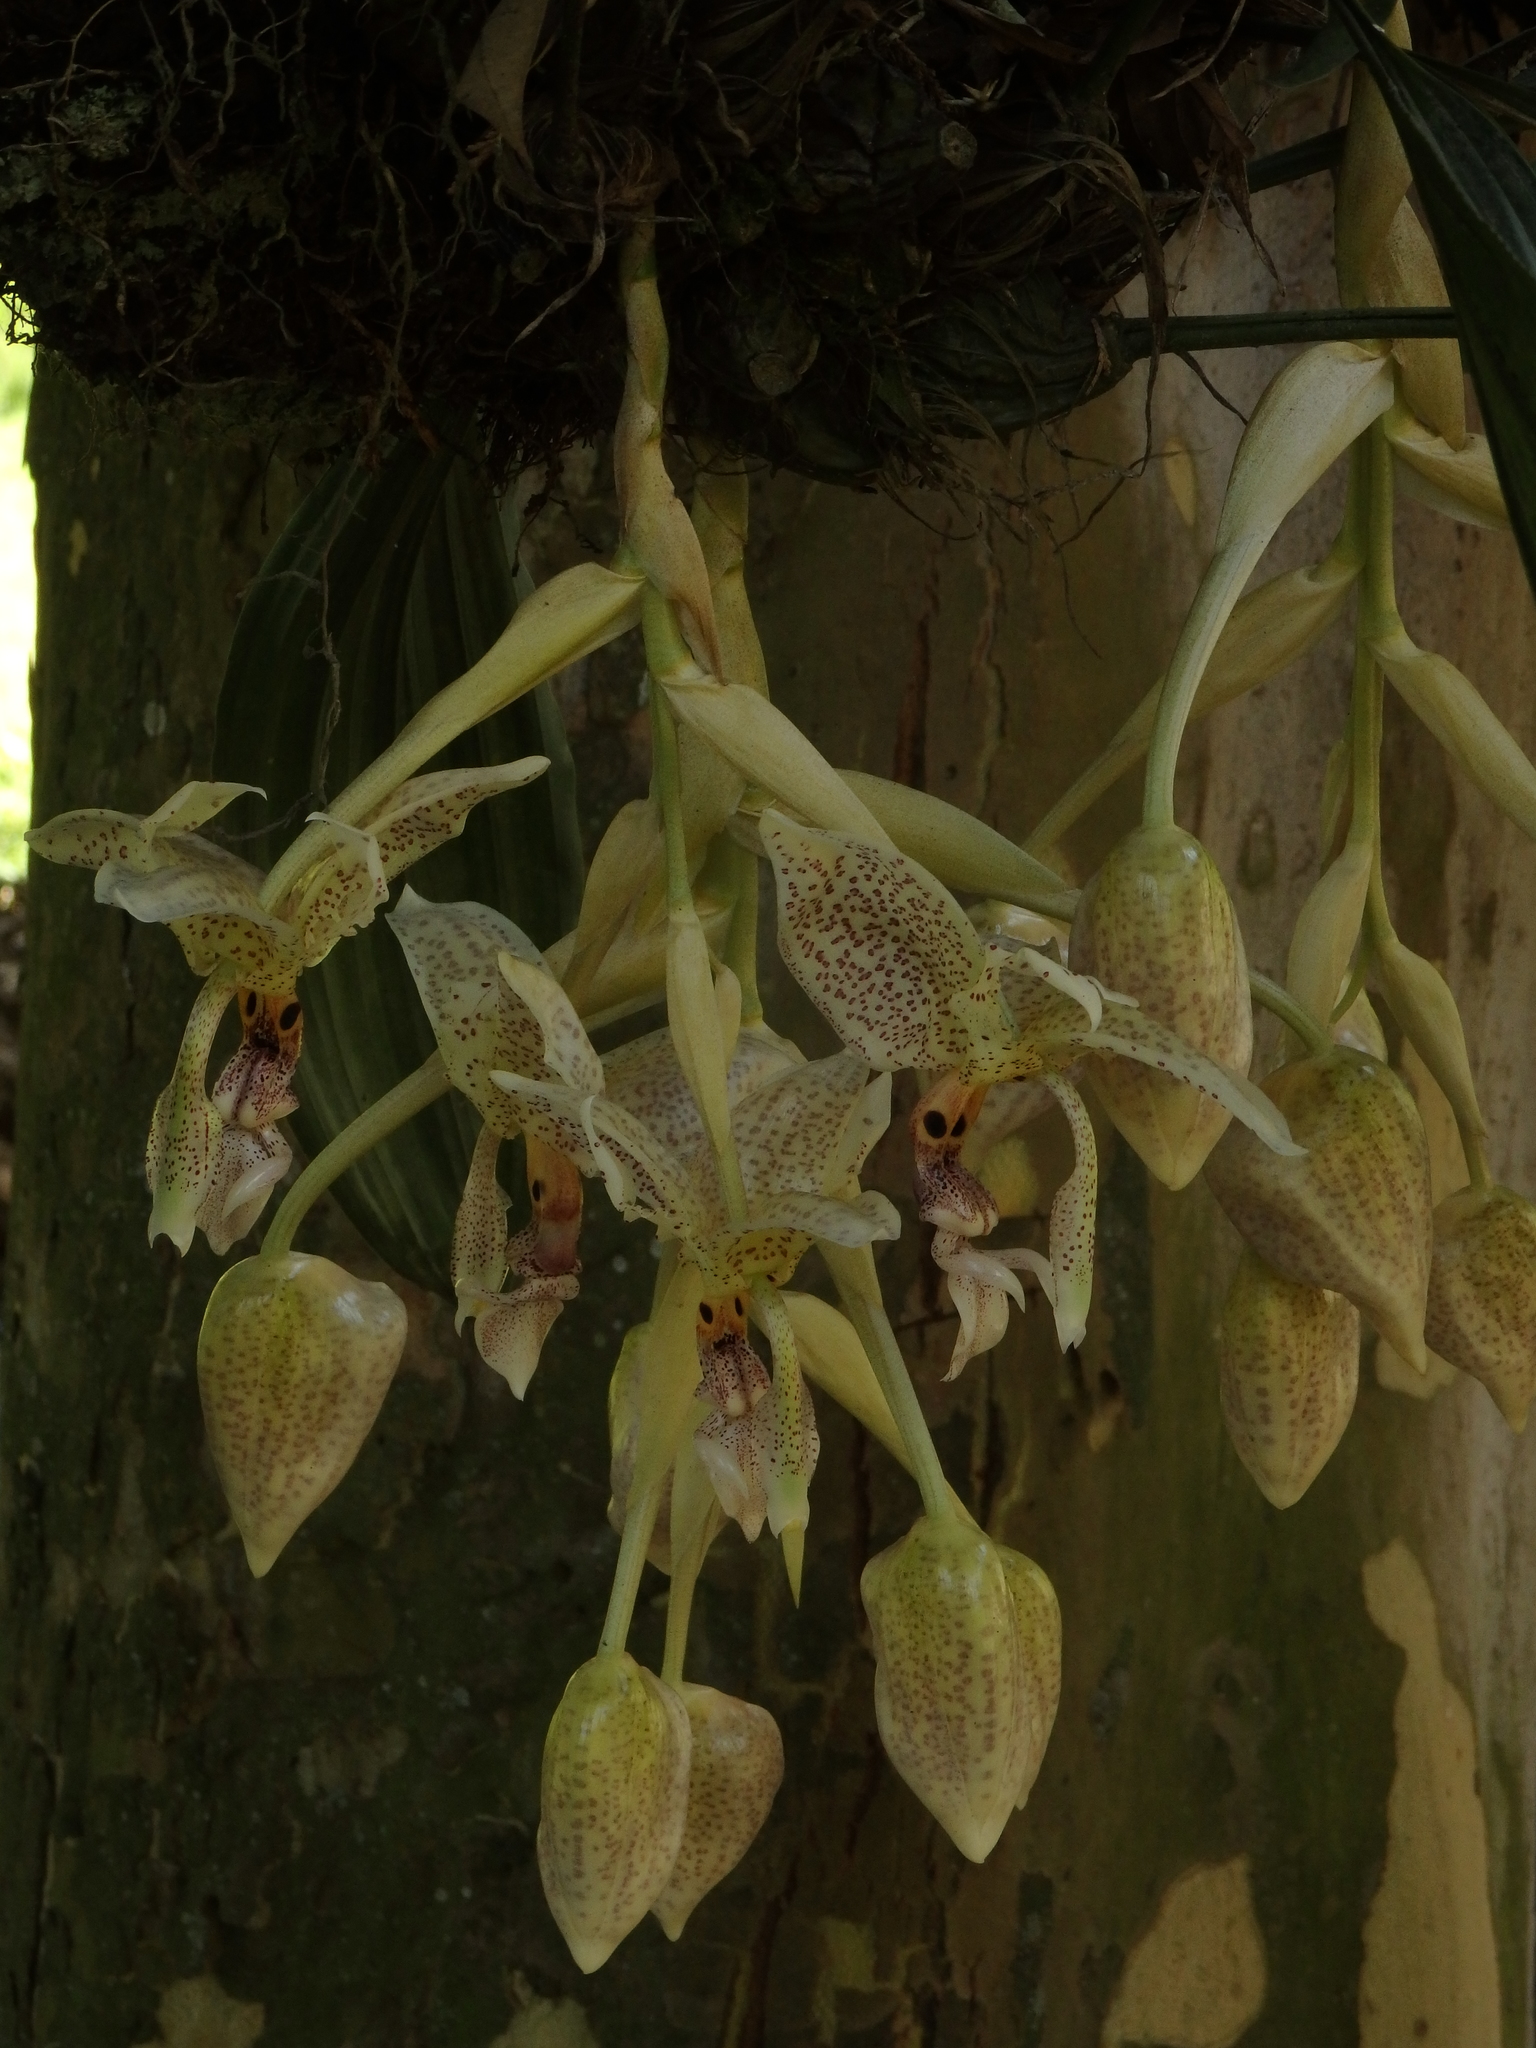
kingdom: Plantae
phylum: Tracheophyta
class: Liliopsida
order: Asparagales
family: Orchidaceae
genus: Stanhopea
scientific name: Stanhopea oculata
